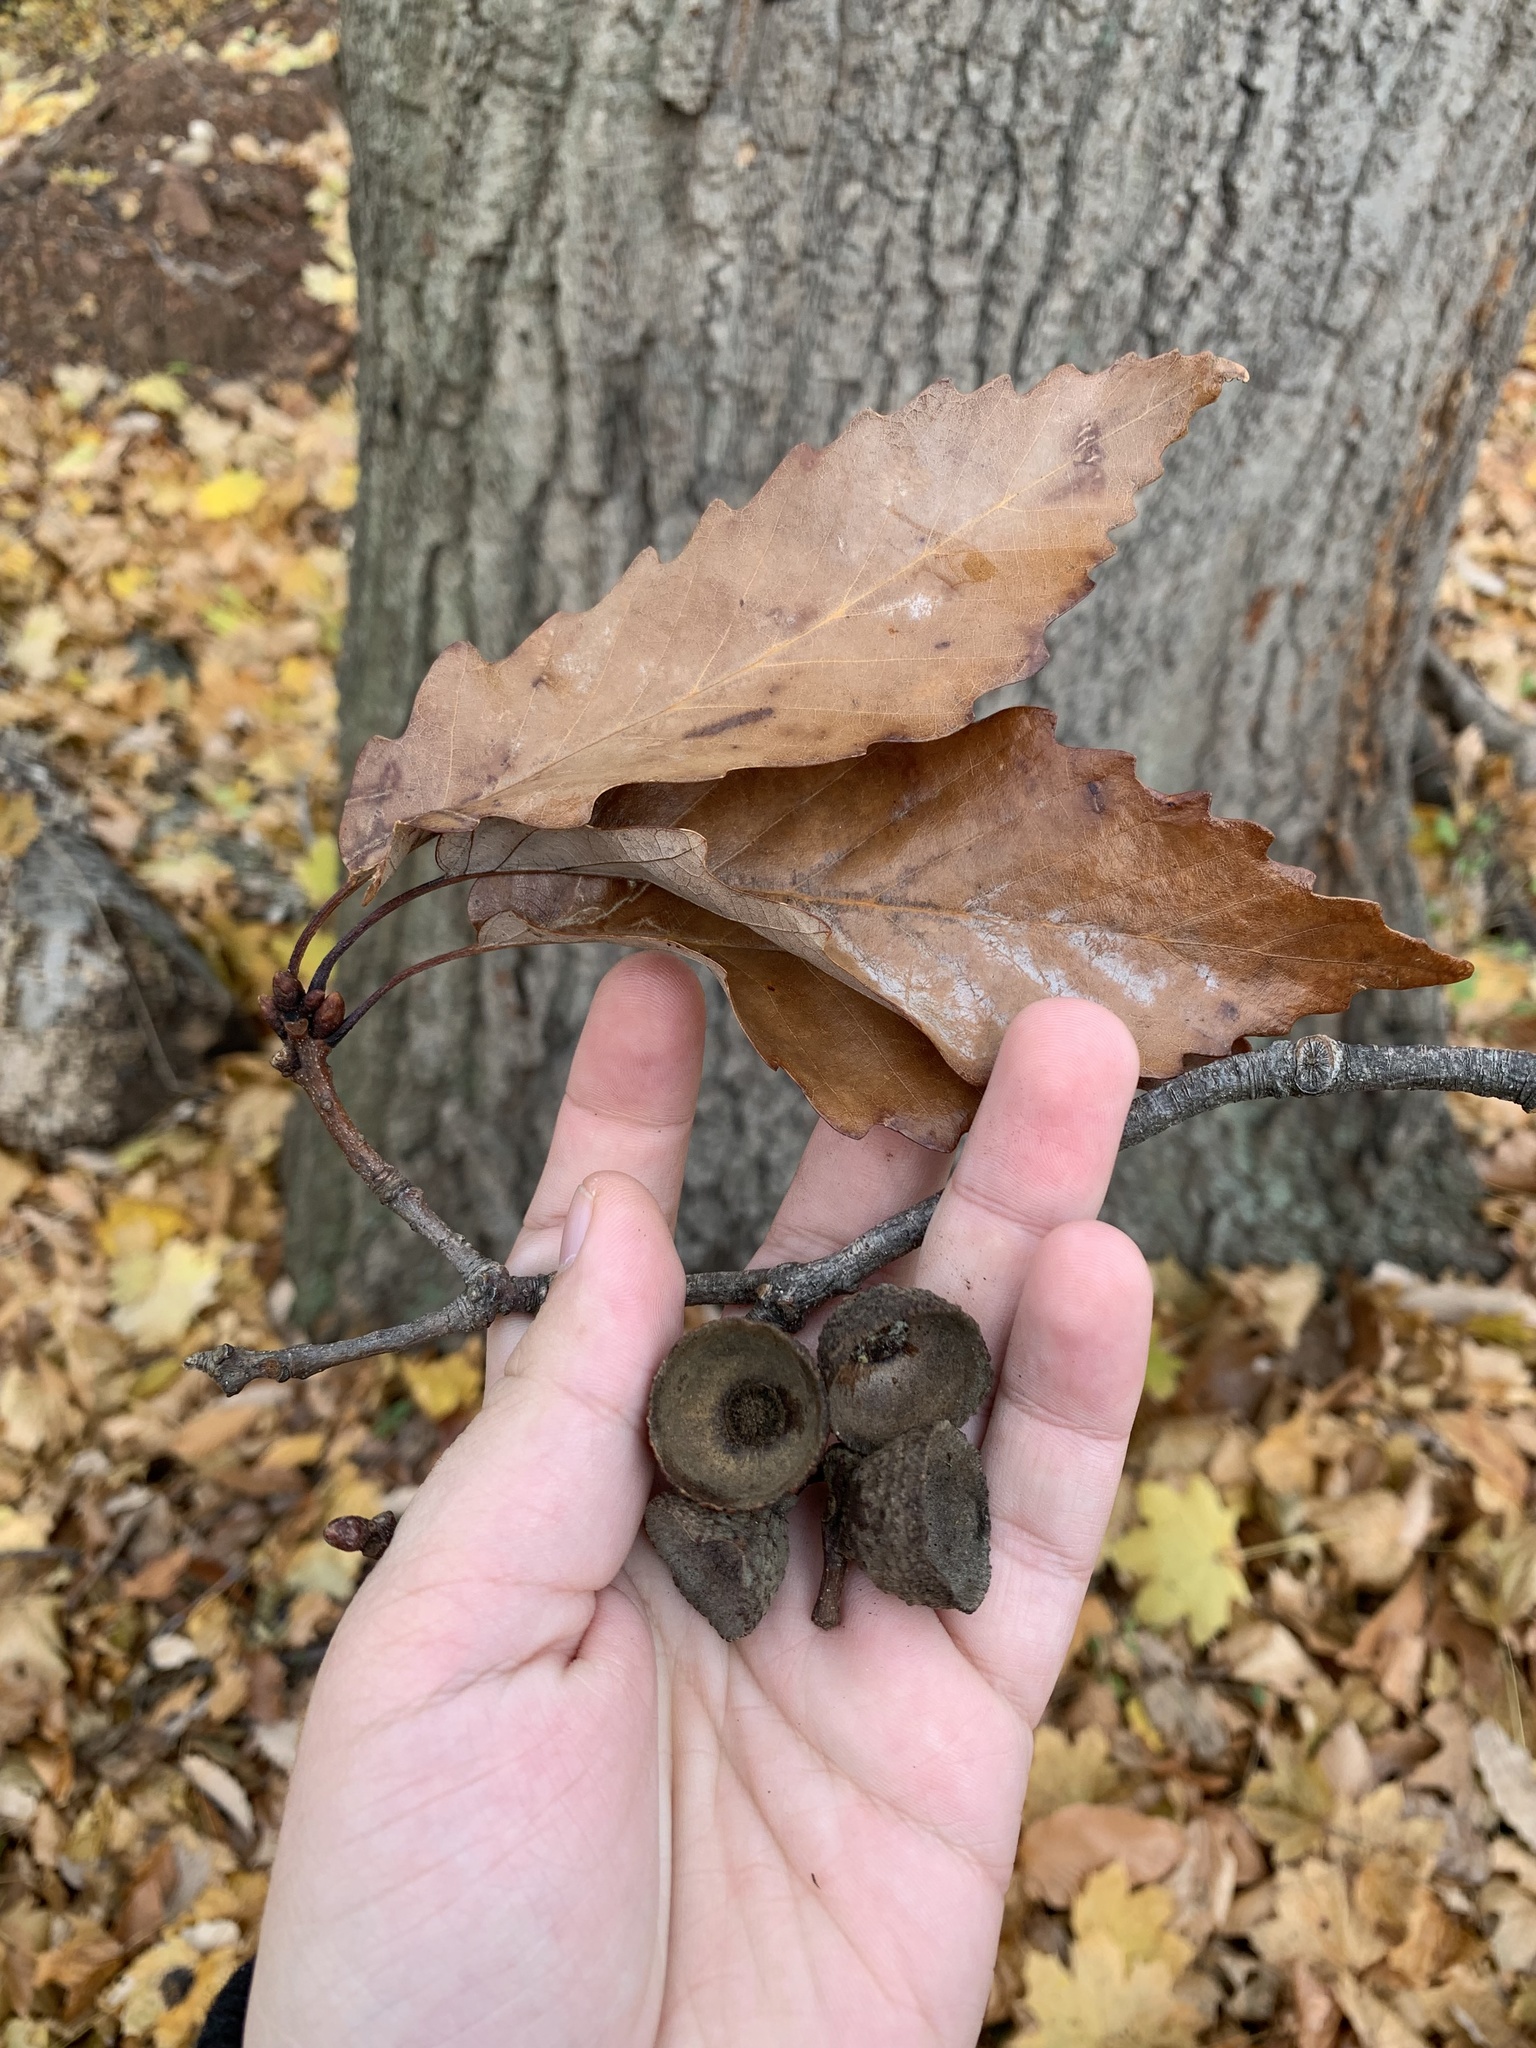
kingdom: Plantae
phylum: Tracheophyta
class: Magnoliopsida
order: Fagales
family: Fagaceae
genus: Quercus
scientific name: Quercus montana
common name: Chestnut oak
